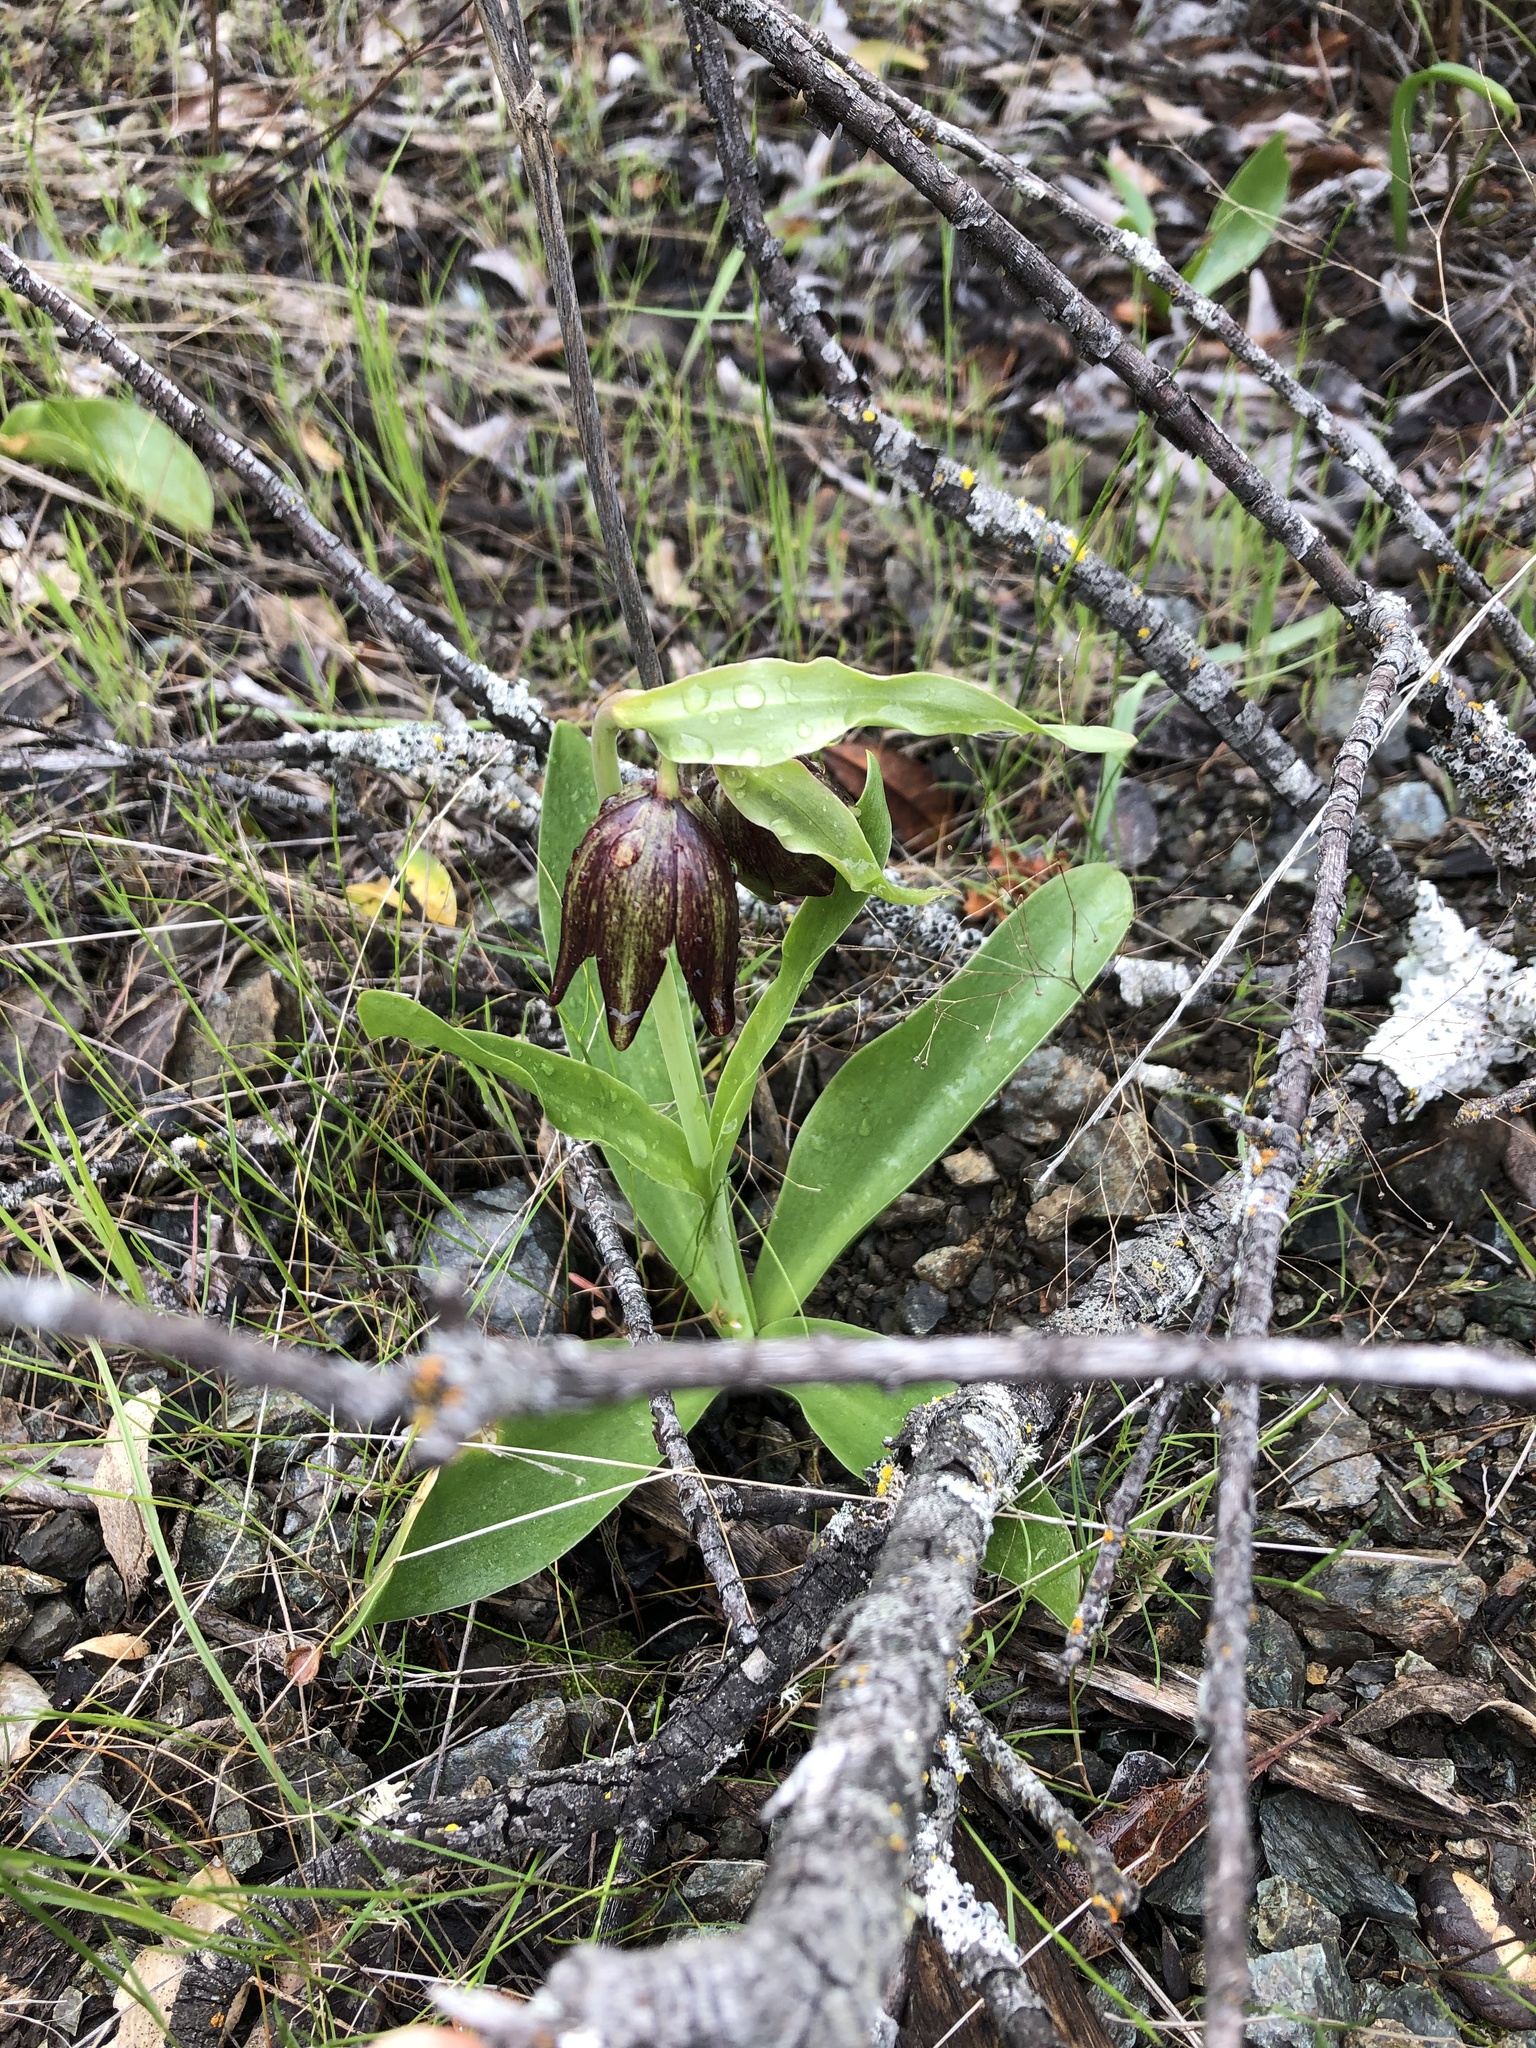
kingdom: Plantae
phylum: Tracheophyta
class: Liliopsida
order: Liliales
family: Liliaceae
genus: Fritillaria
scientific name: Fritillaria biflora
